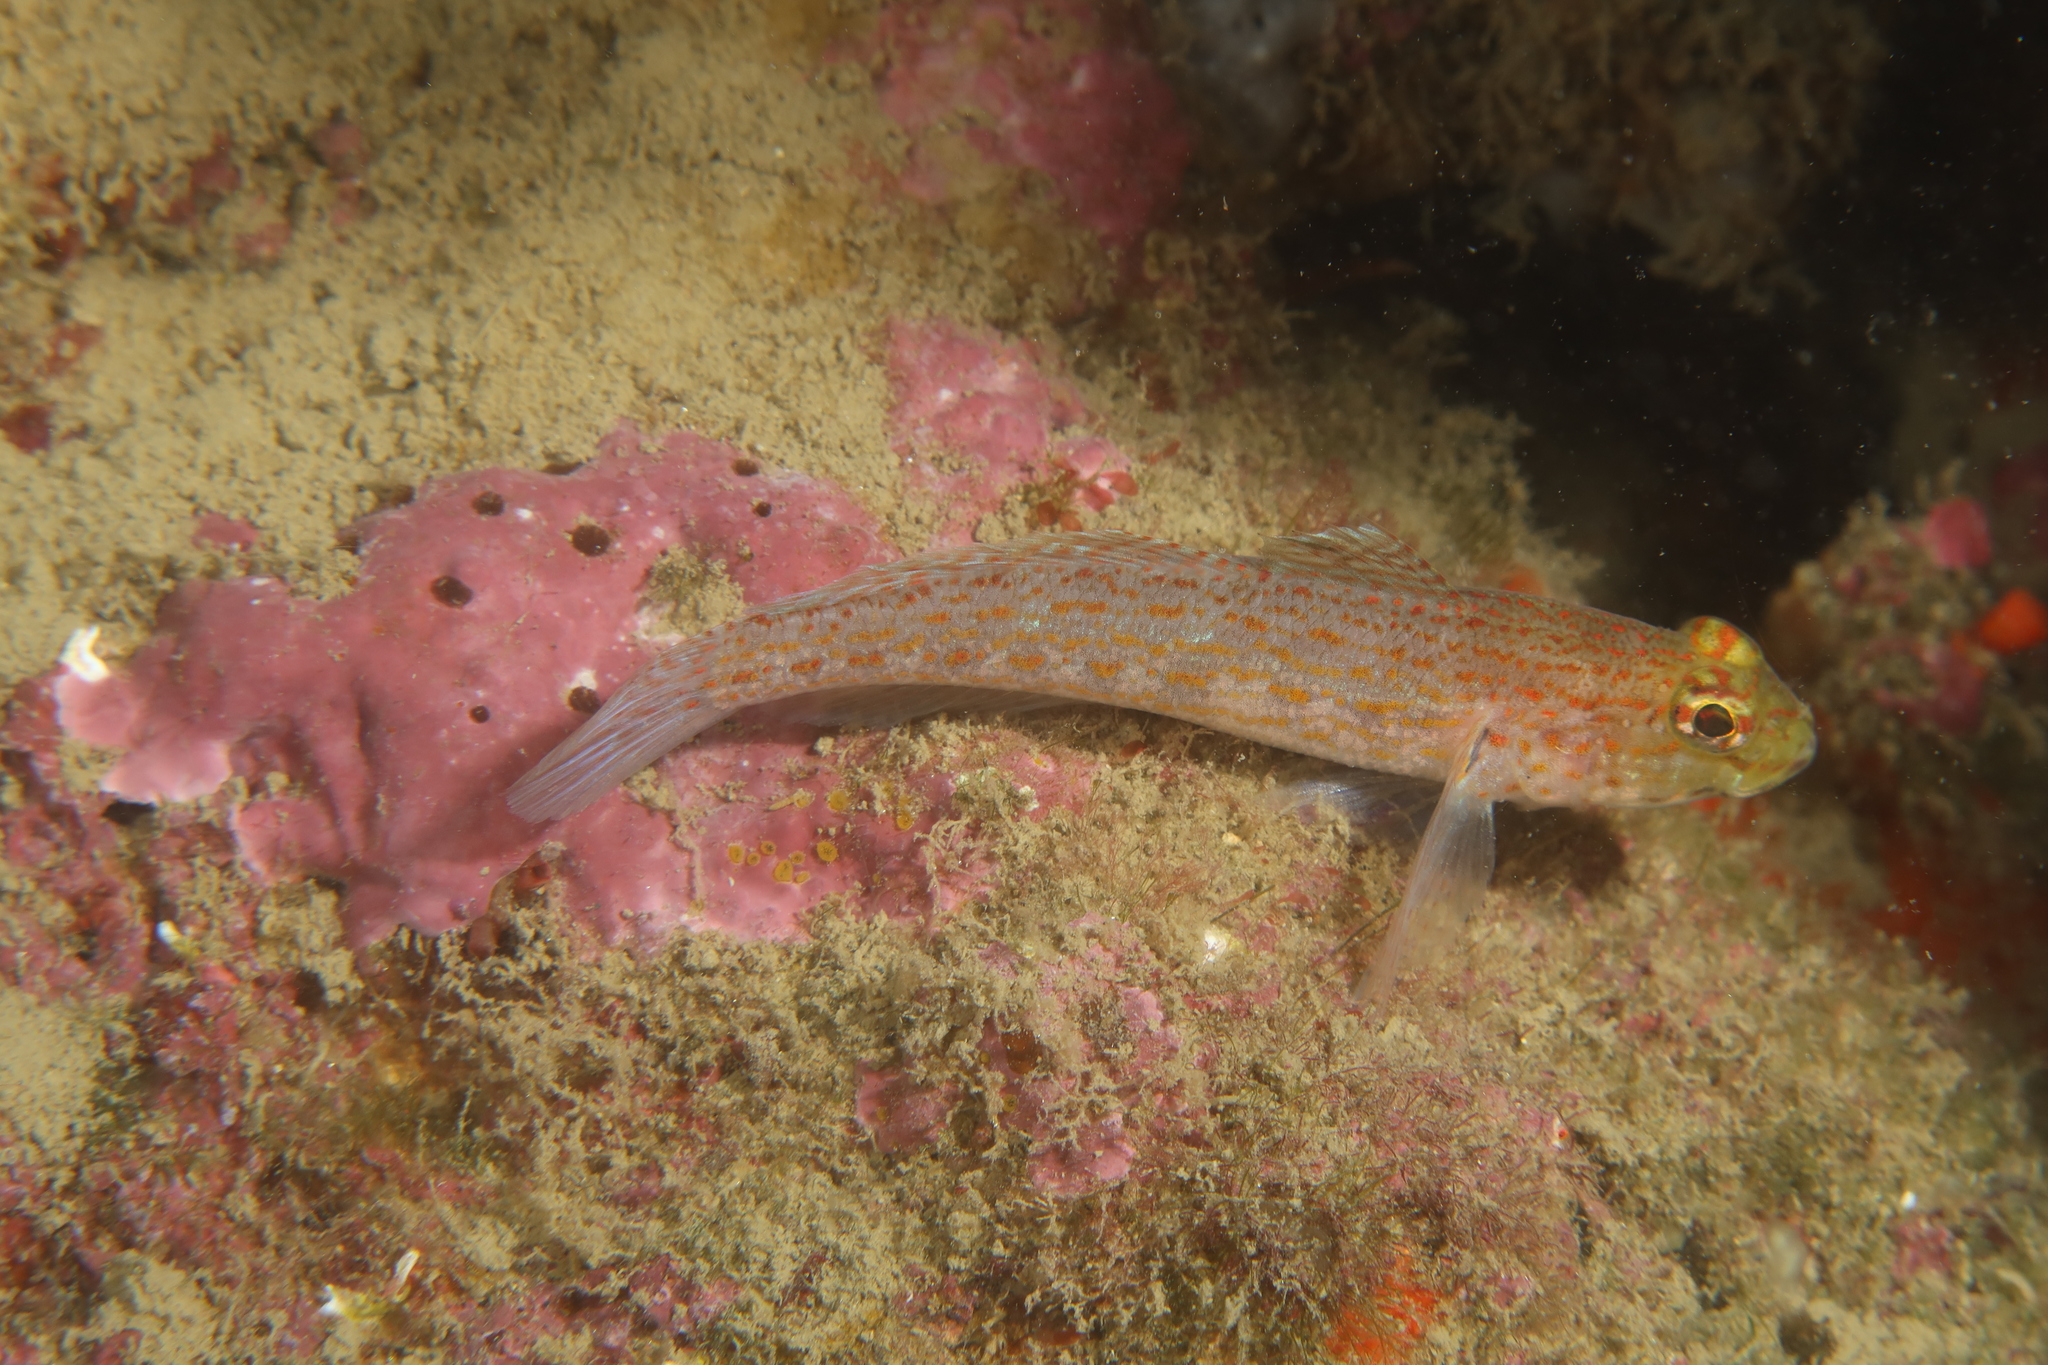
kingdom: Animalia
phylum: Chordata
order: Perciformes
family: Gobiidae
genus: Gobius
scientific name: Gobius xanthocephalus
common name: Golden goby
